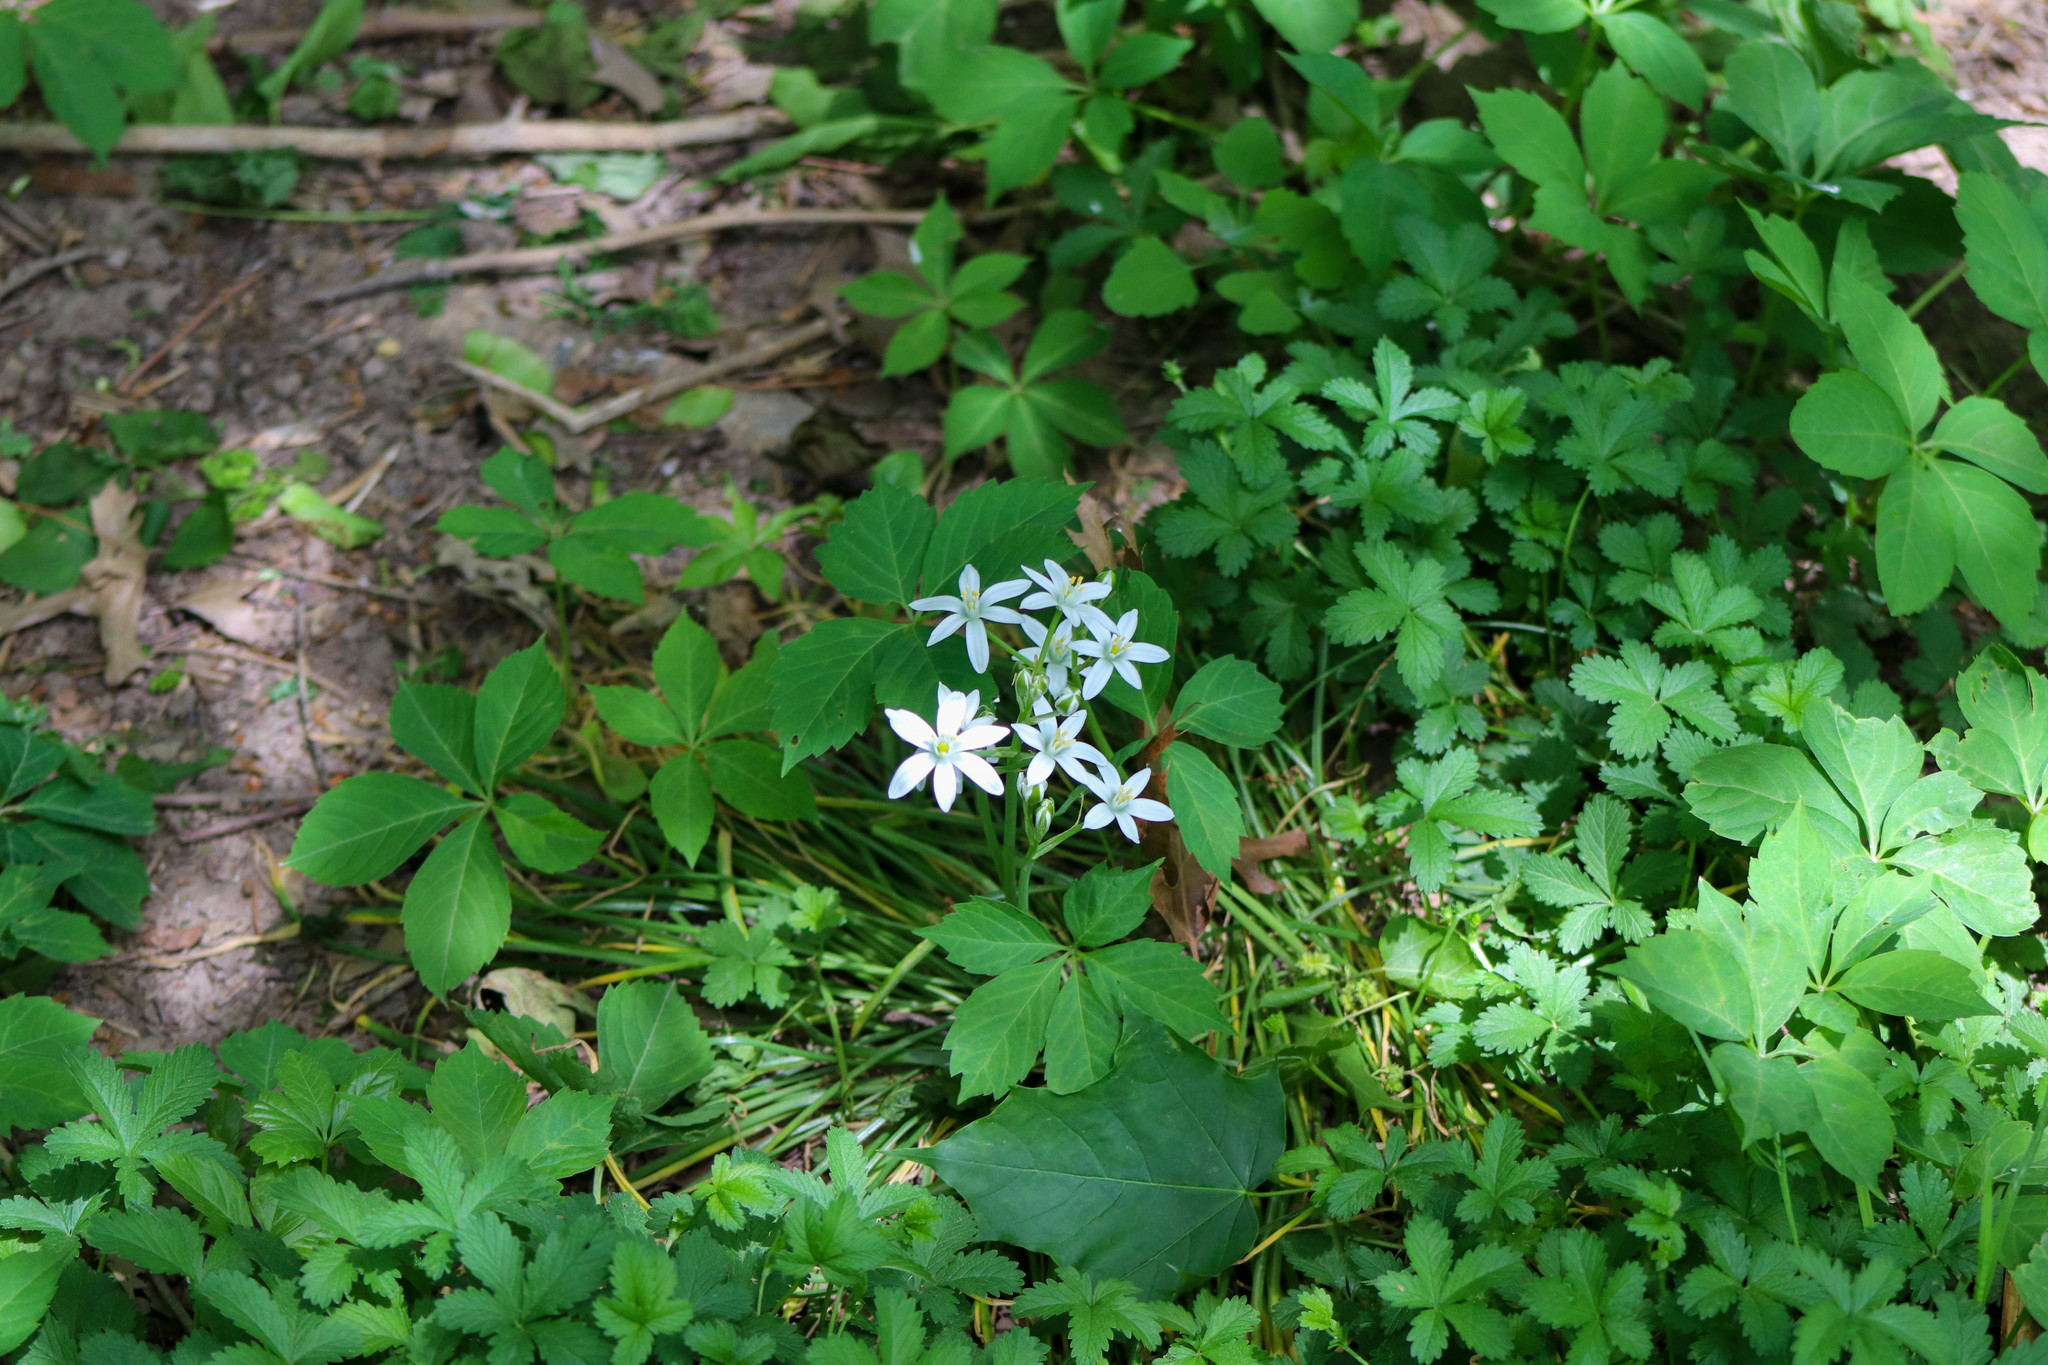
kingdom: Plantae
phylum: Tracheophyta
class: Liliopsida
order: Asparagales
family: Asparagaceae
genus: Ornithogalum
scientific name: Ornithogalum umbellatum
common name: Garden star-of-bethlehem
